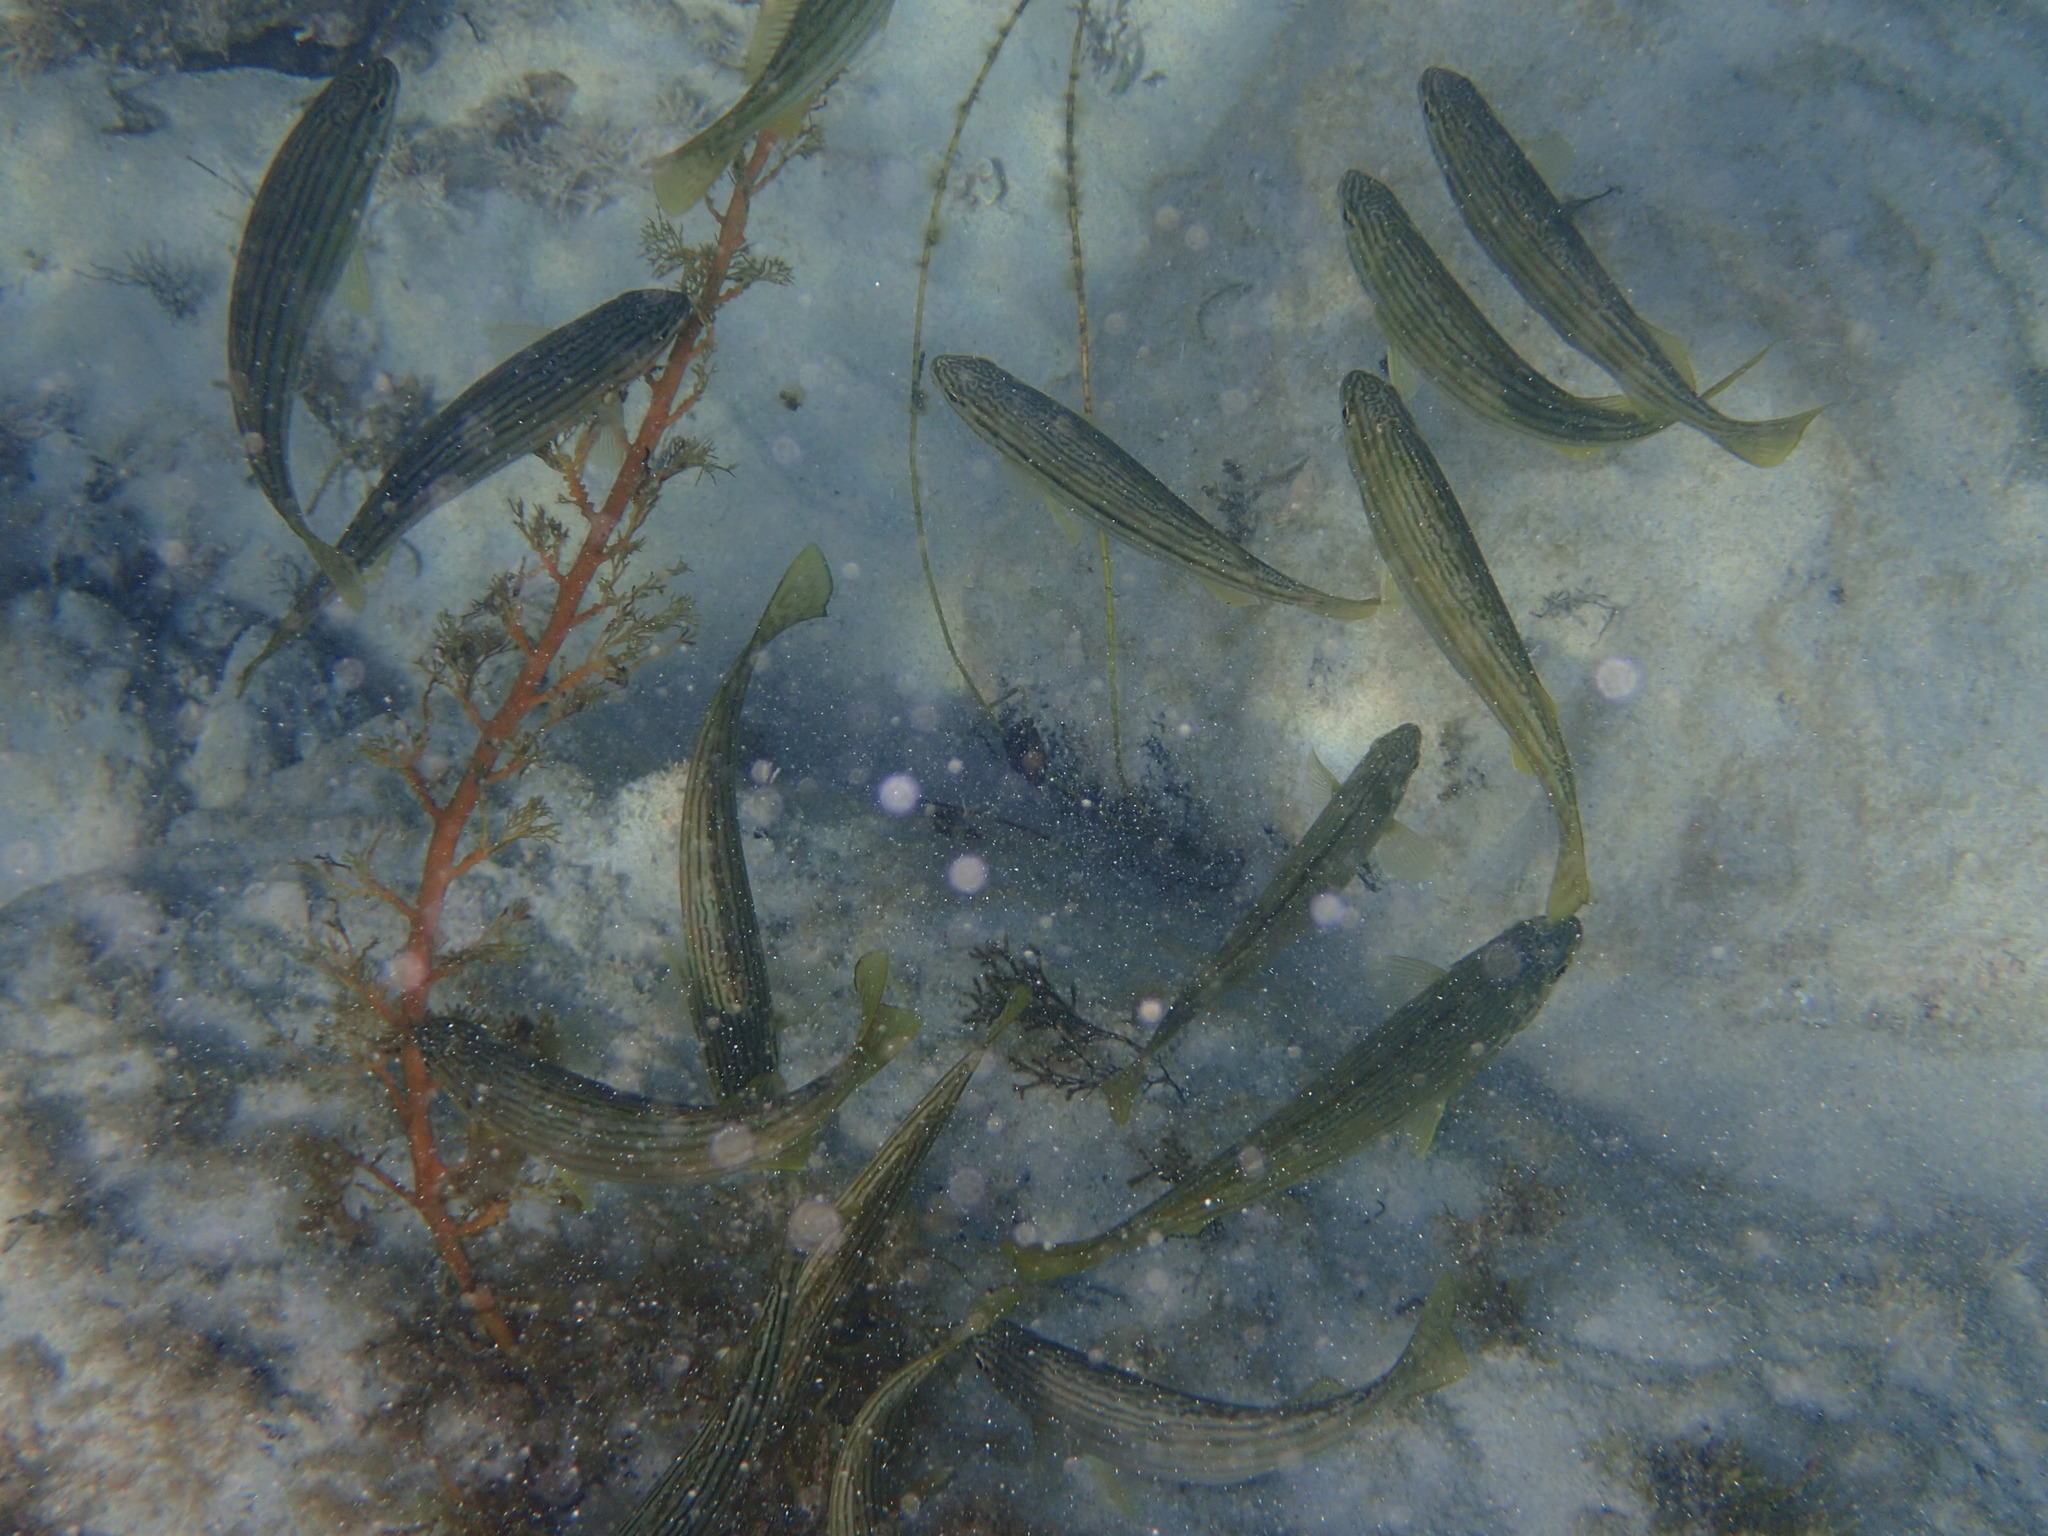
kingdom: Animalia
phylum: Chordata
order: Perciformes
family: Terapontidae
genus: Pelates
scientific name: Pelates octolineatus
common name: Eight-lined trumpeter
